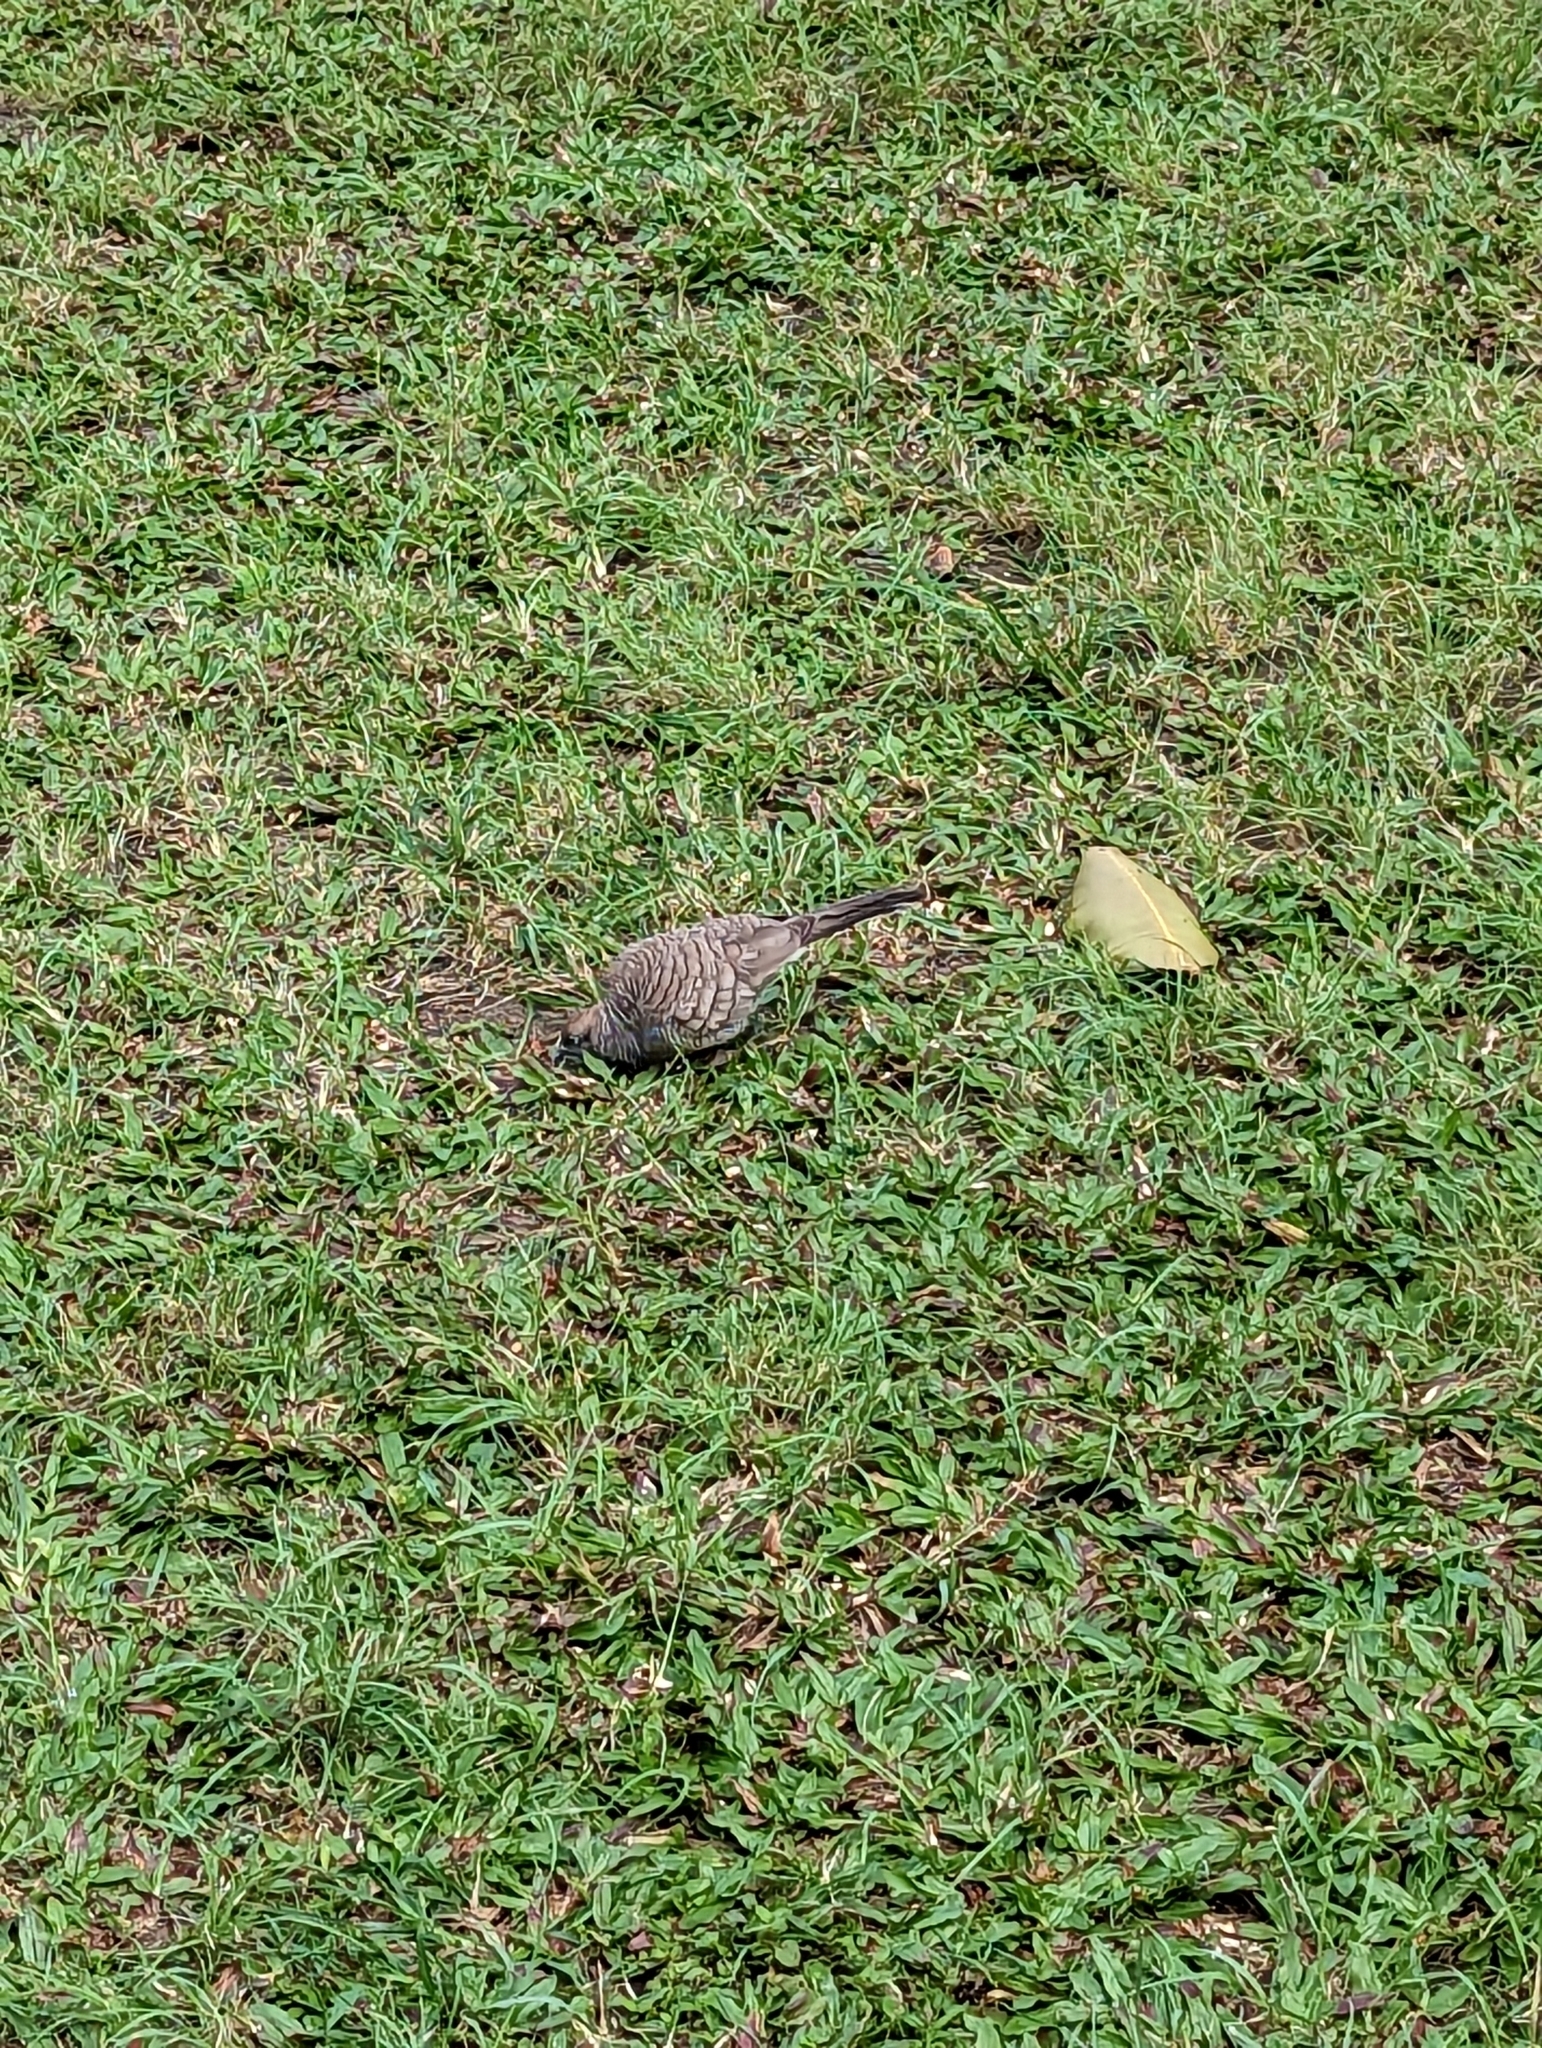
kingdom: Animalia
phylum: Chordata
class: Aves
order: Columbiformes
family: Columbidae
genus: Geopelia
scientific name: Geopelia striata
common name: Zebra dove
